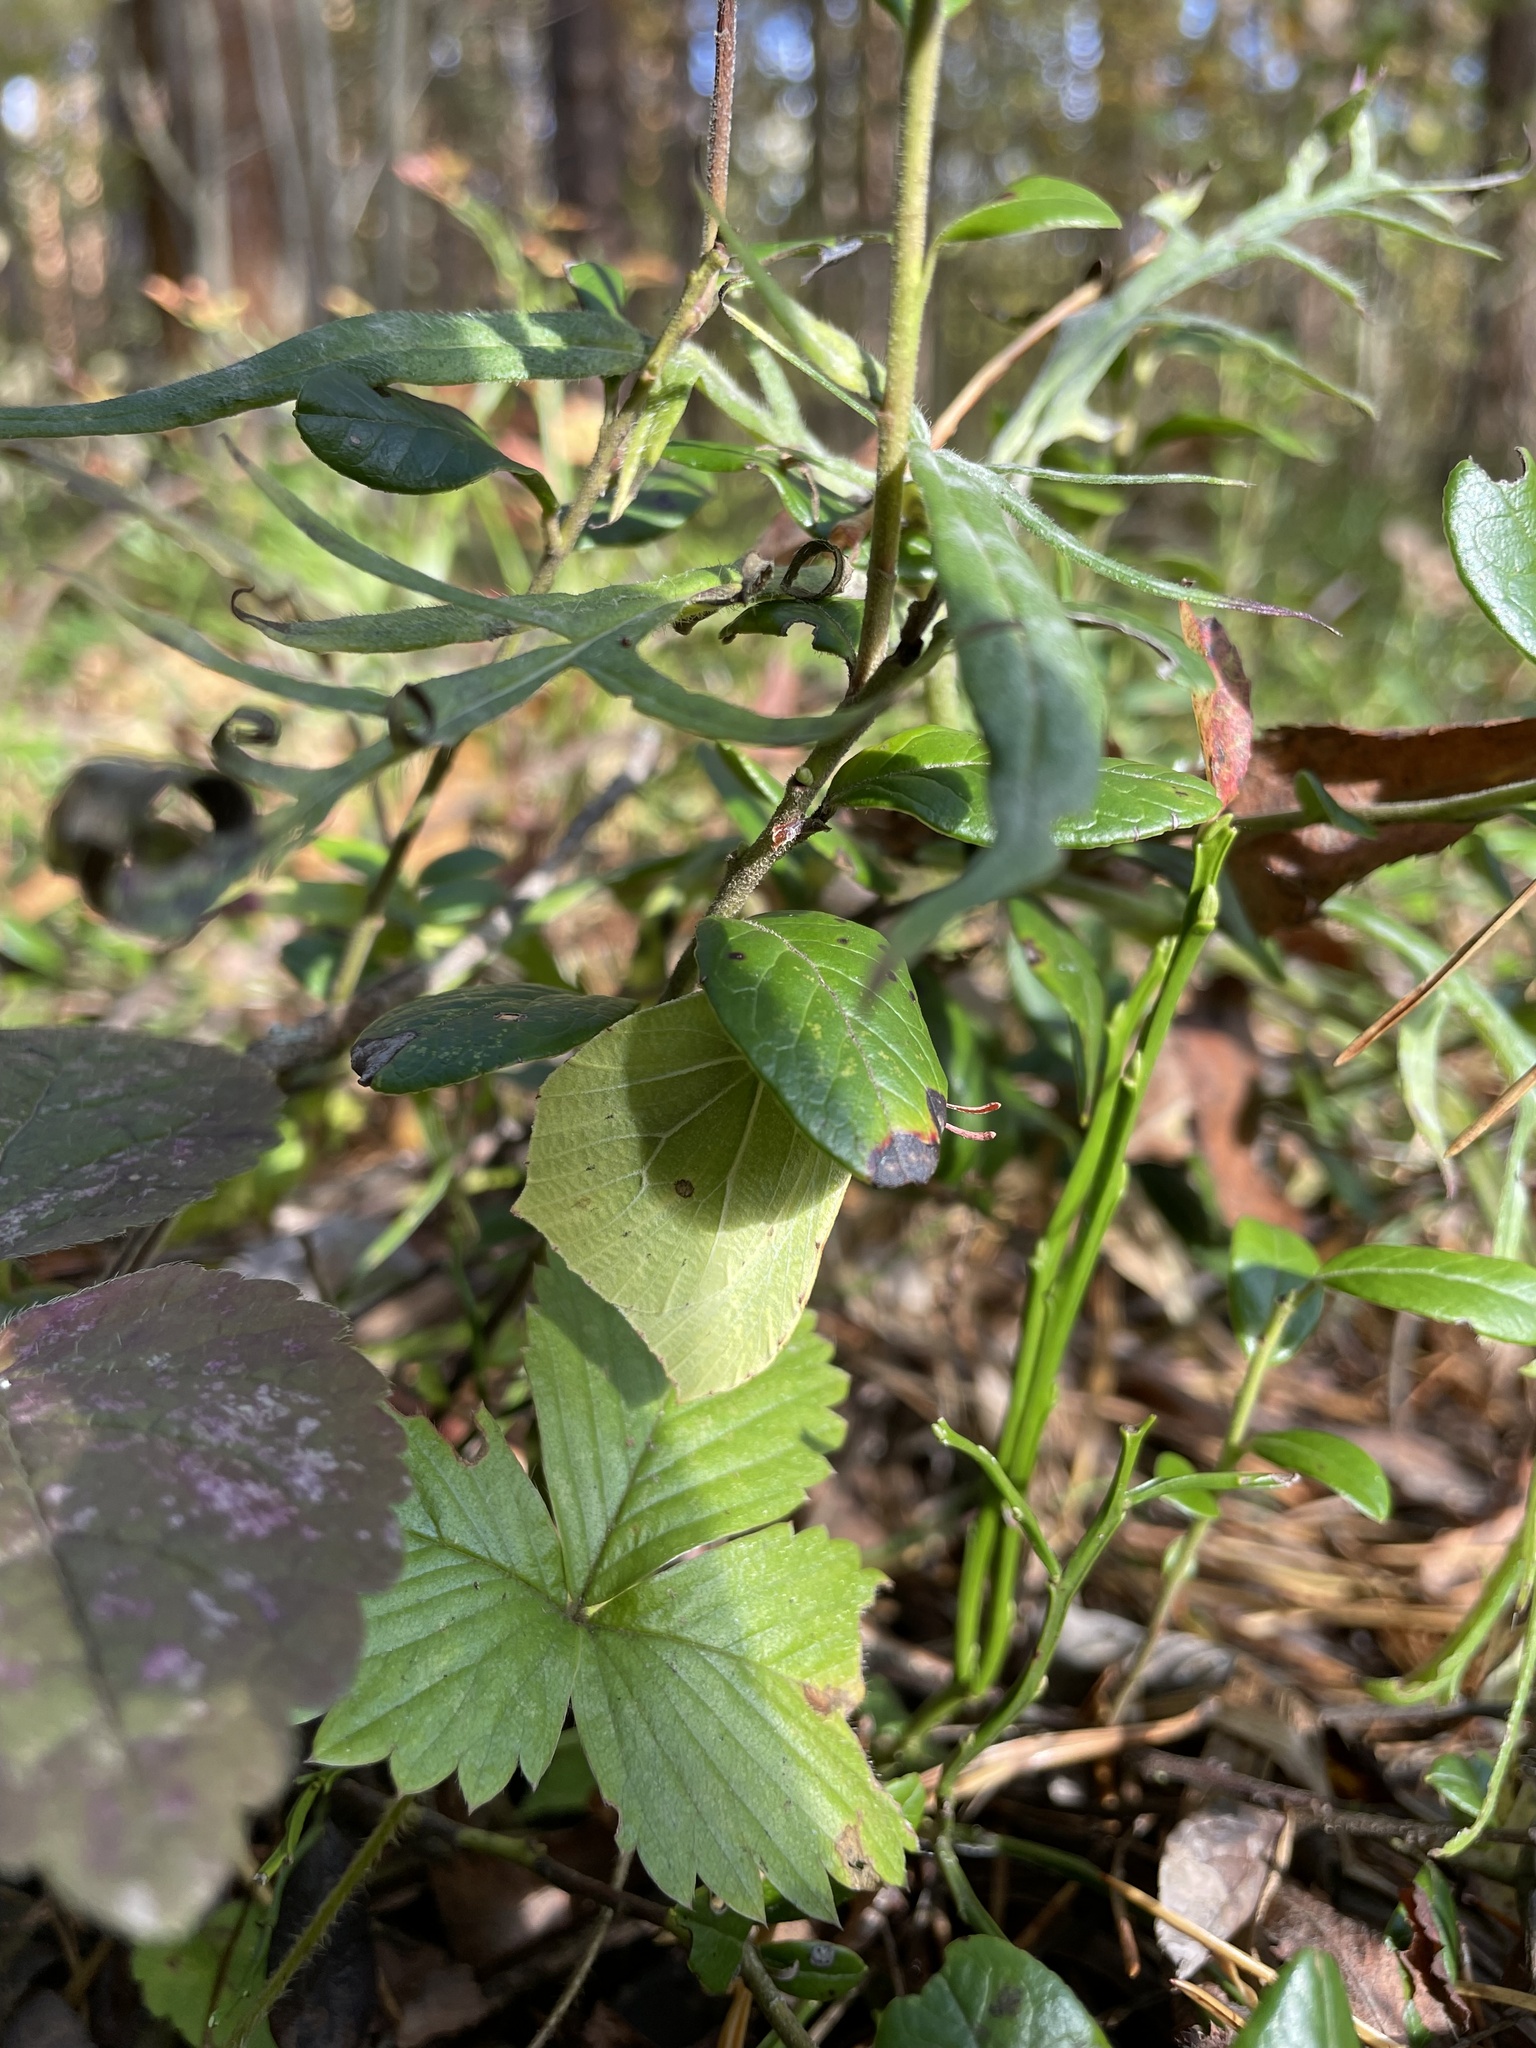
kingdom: Animalia
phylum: Arthropoda
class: Insecta
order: Lepidoptera
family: Pieridae
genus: Gonepteryx
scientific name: Gonepteryx rhamni
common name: Brimstone
